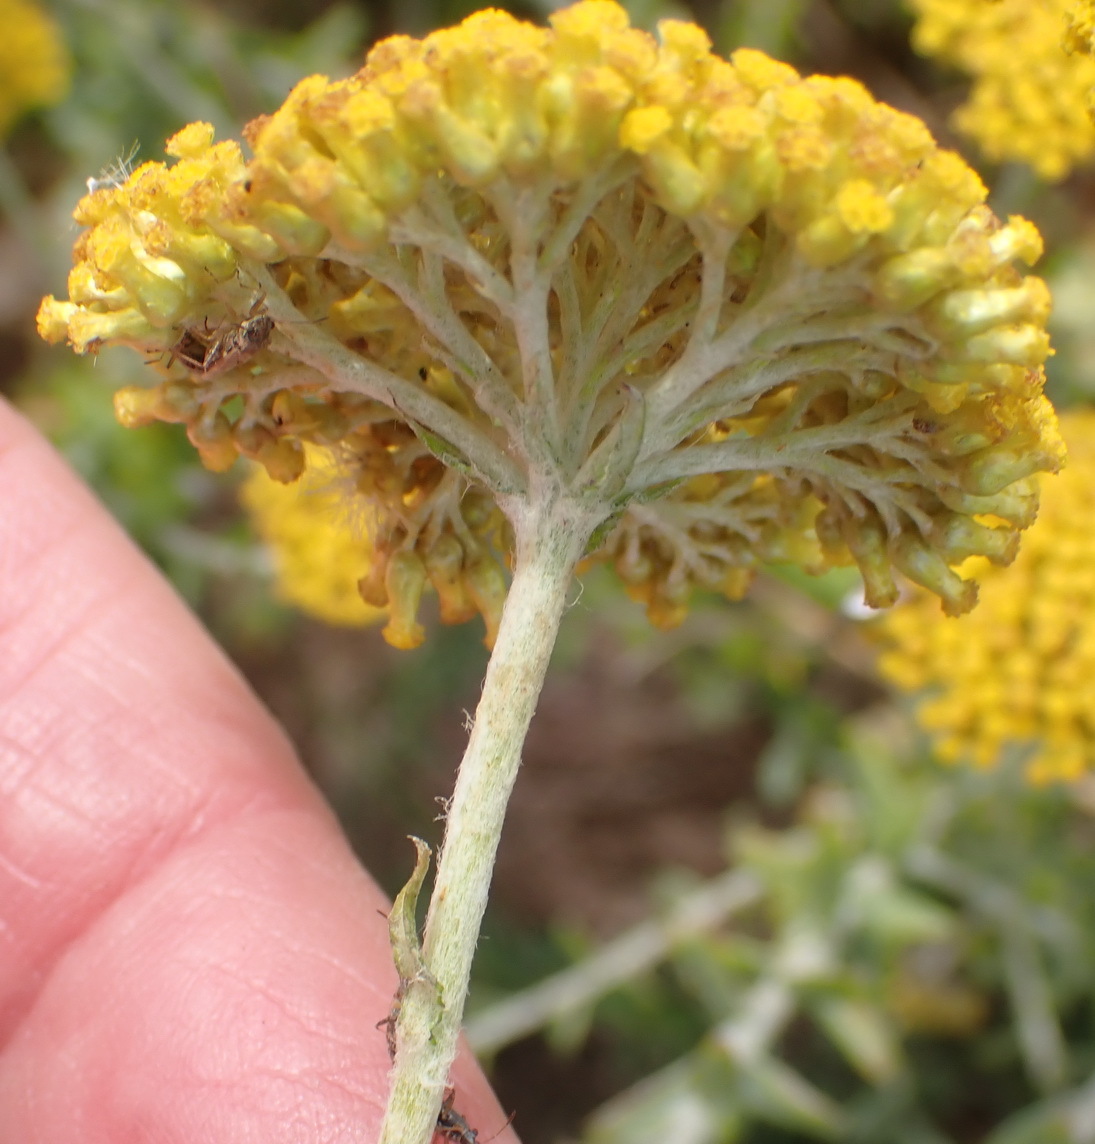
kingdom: Plantae
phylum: Tracheophyta
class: Magnoliopsida
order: Asterales
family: Asteraceae
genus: Helichrysum
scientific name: Helichrysum cymosum
